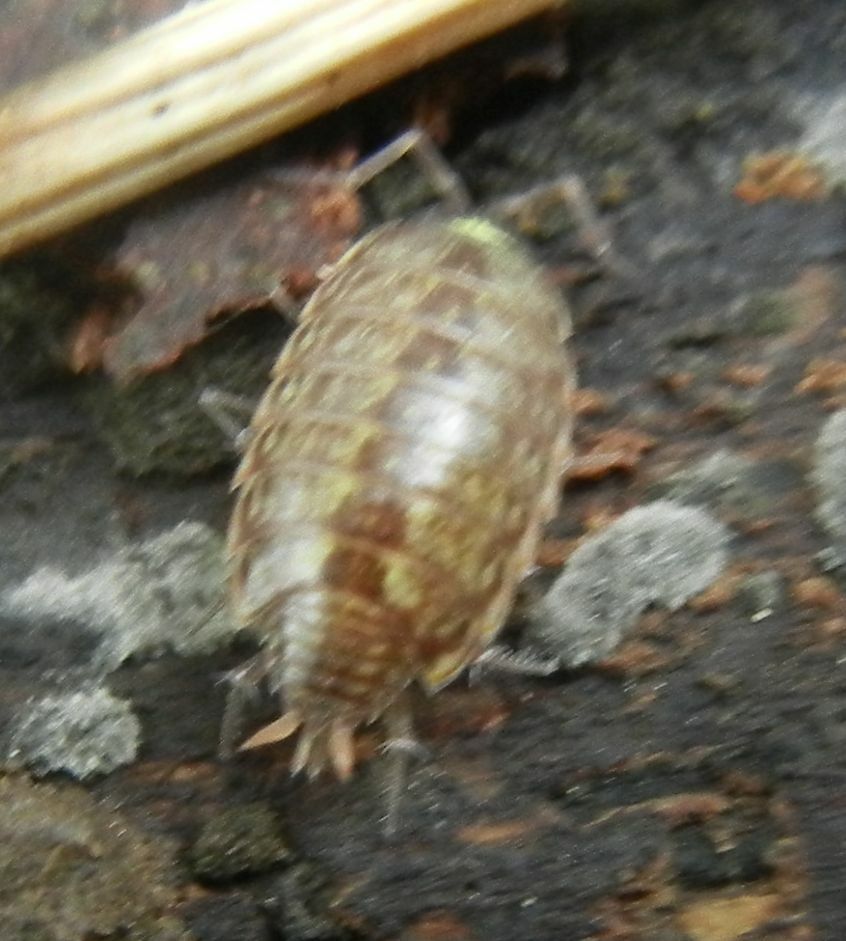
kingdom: Animalia
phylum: Arthropoda
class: Malacostraca
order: Isopoda
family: Philosciidae
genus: Philoscia
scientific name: Philoscia muscorum
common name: Common striped woodlouse
